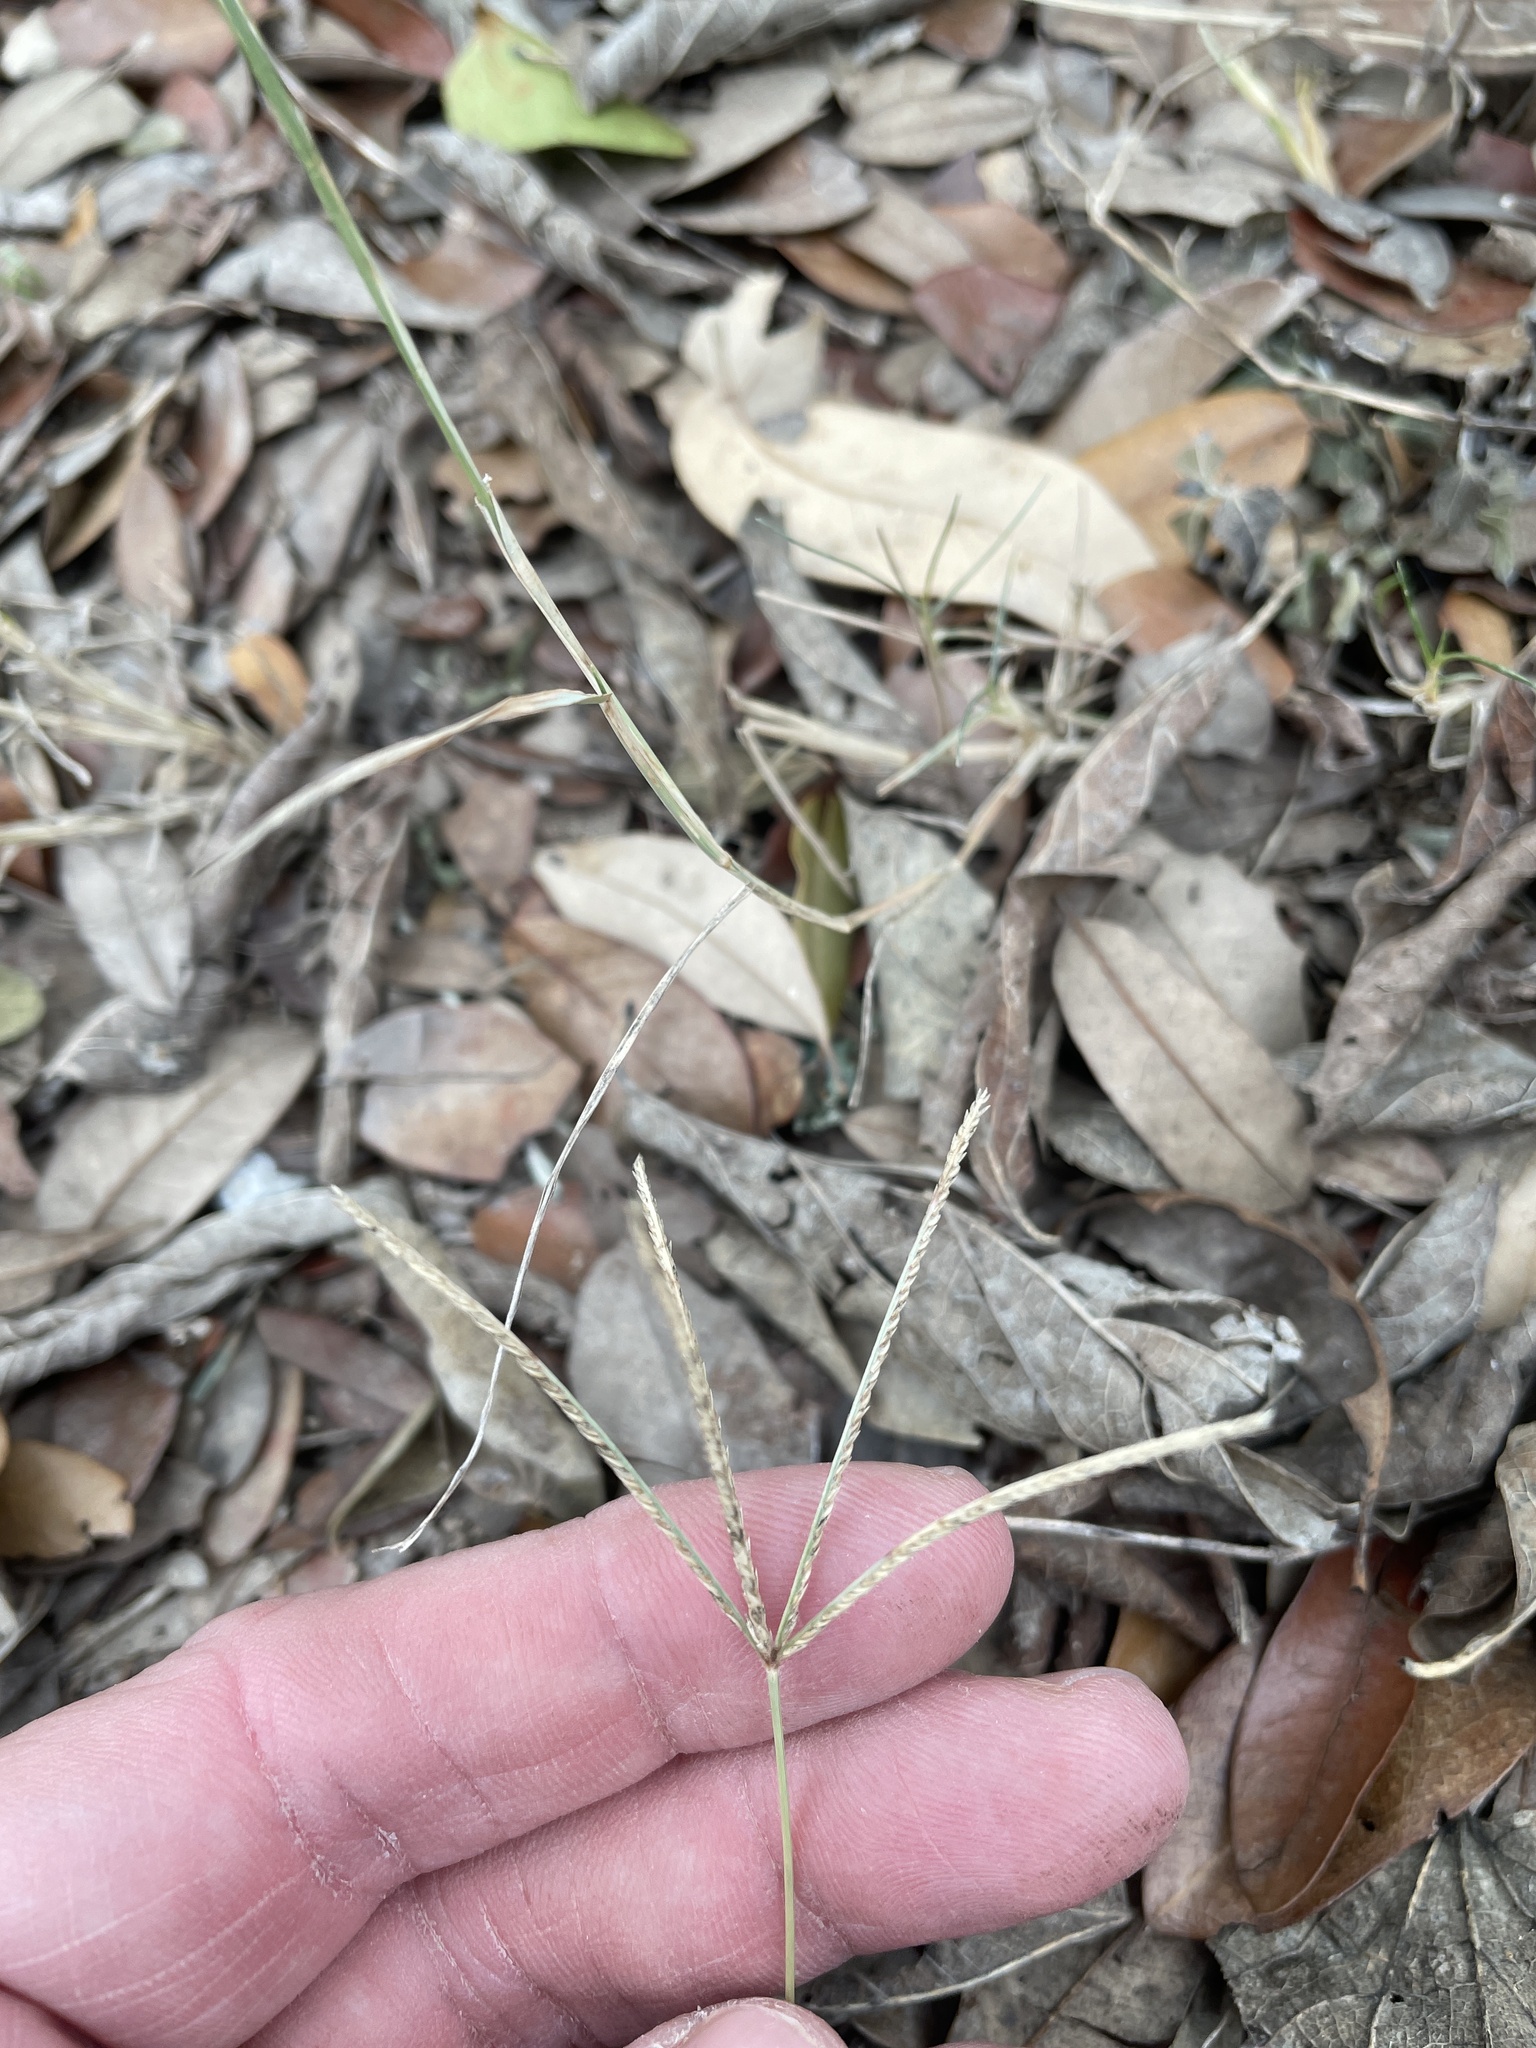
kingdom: Plantae
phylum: Tracheophyta
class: Liliopsida
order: Poales
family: Poaceae
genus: Cynodon
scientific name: Cynodon dactylon
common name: Bermuda grass
